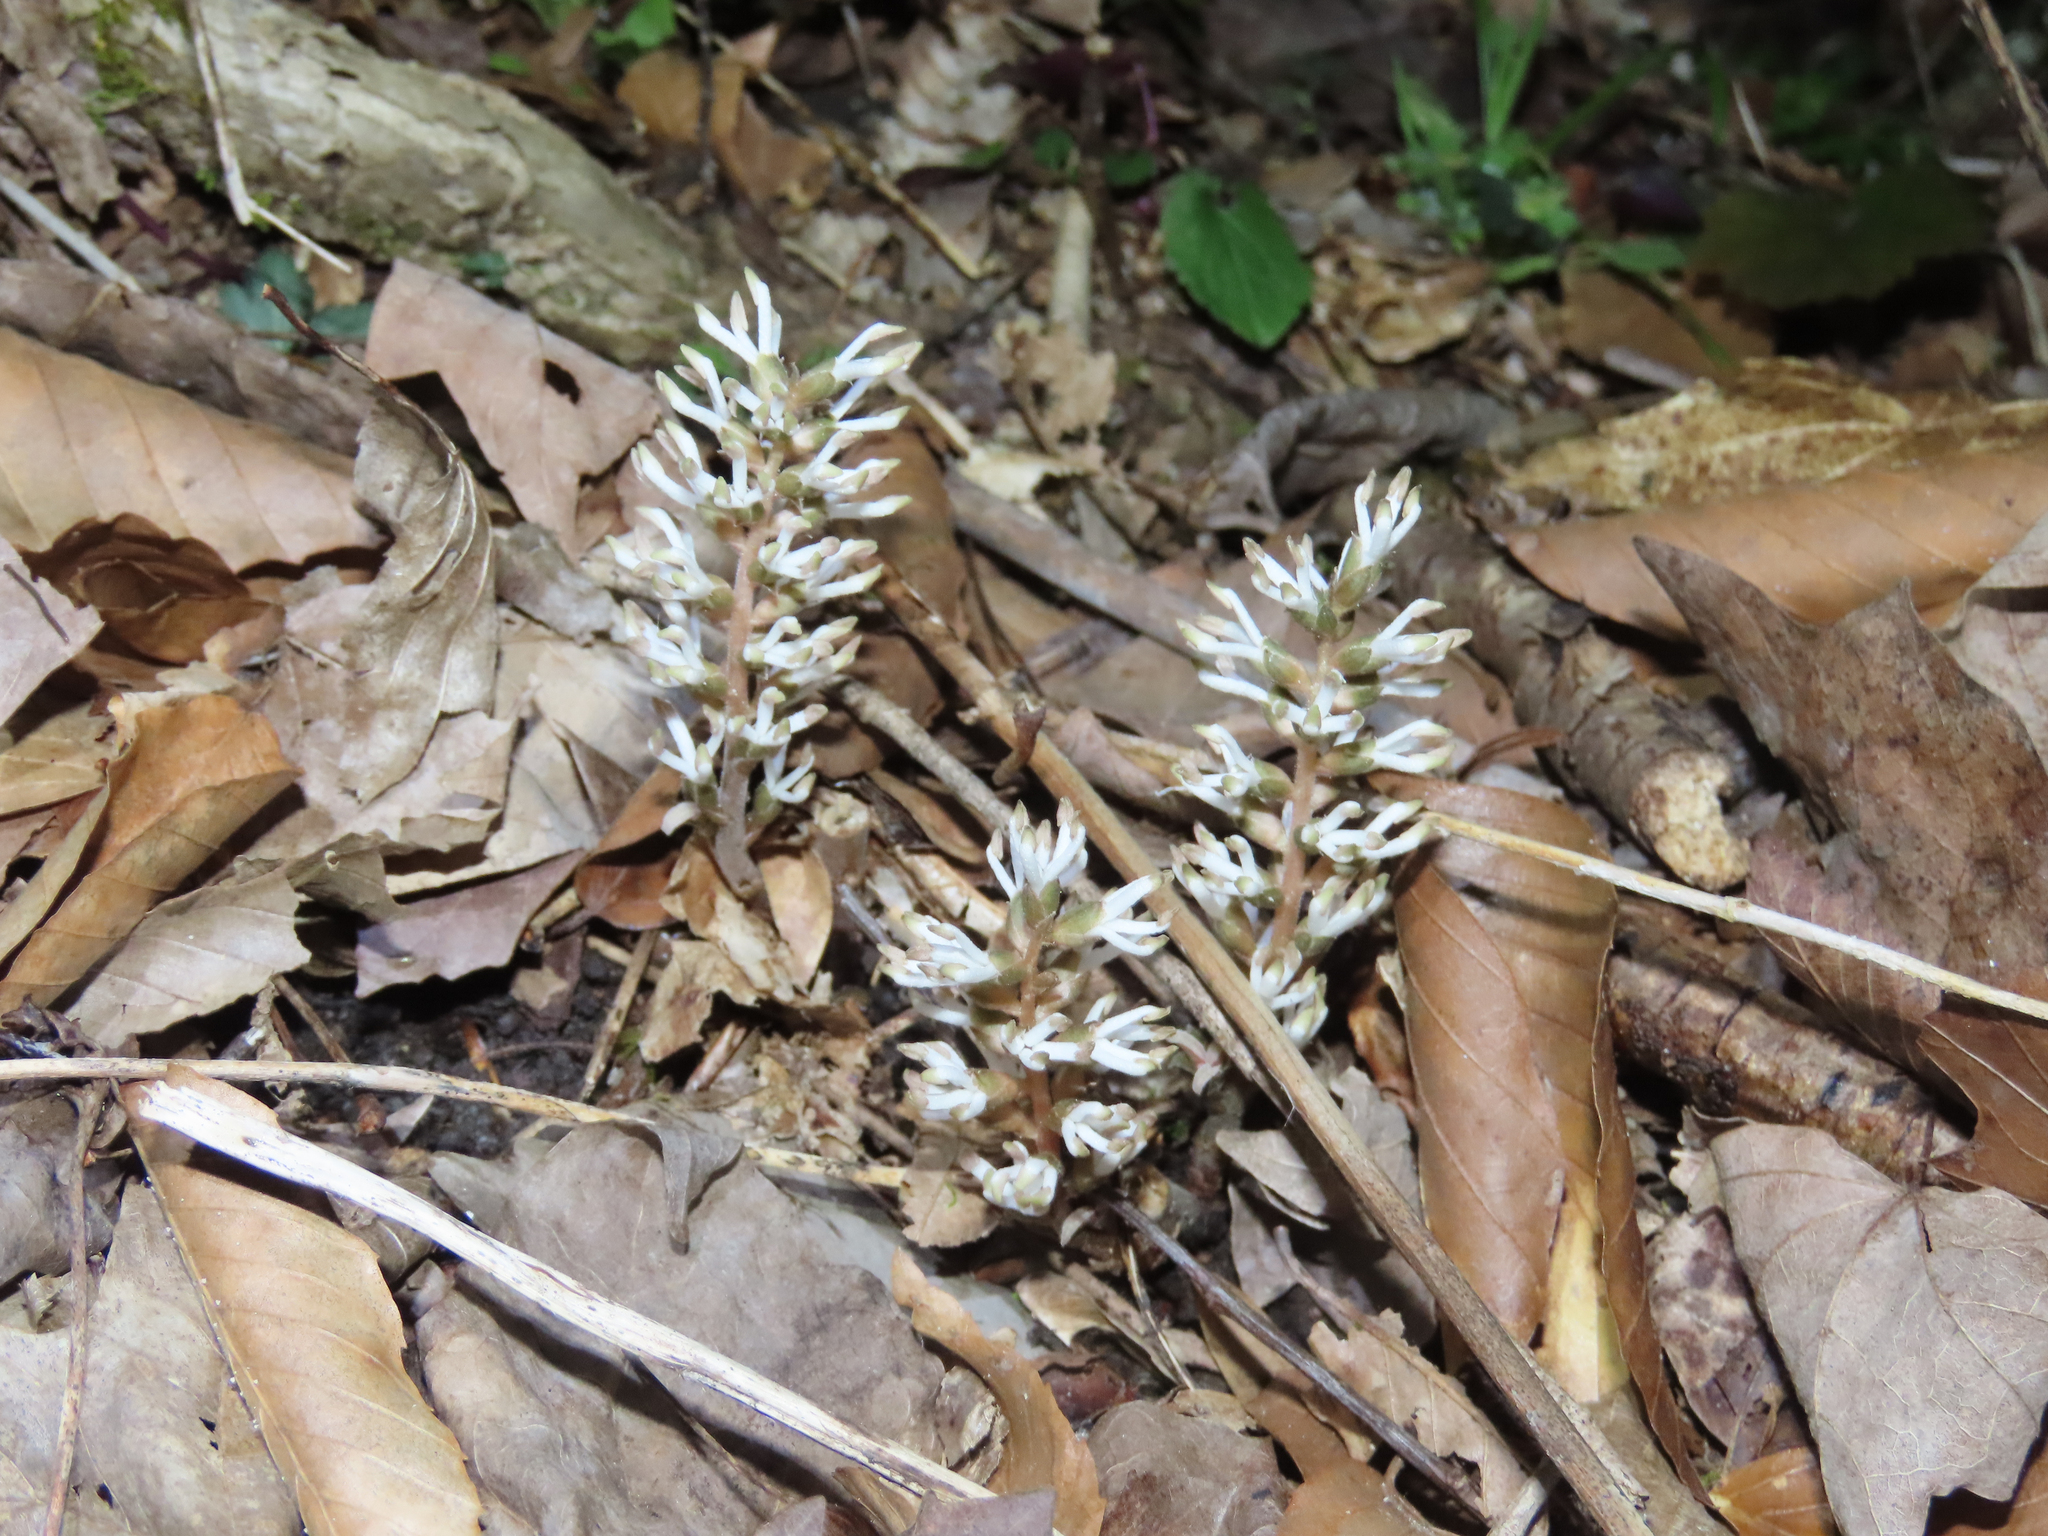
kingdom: Plantae
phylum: Tracheophyta
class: Magnoliopsida
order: Buxales
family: Buxaceae
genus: Pachysandra
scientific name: Pachysandra procumbens
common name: Mountain-spurge
